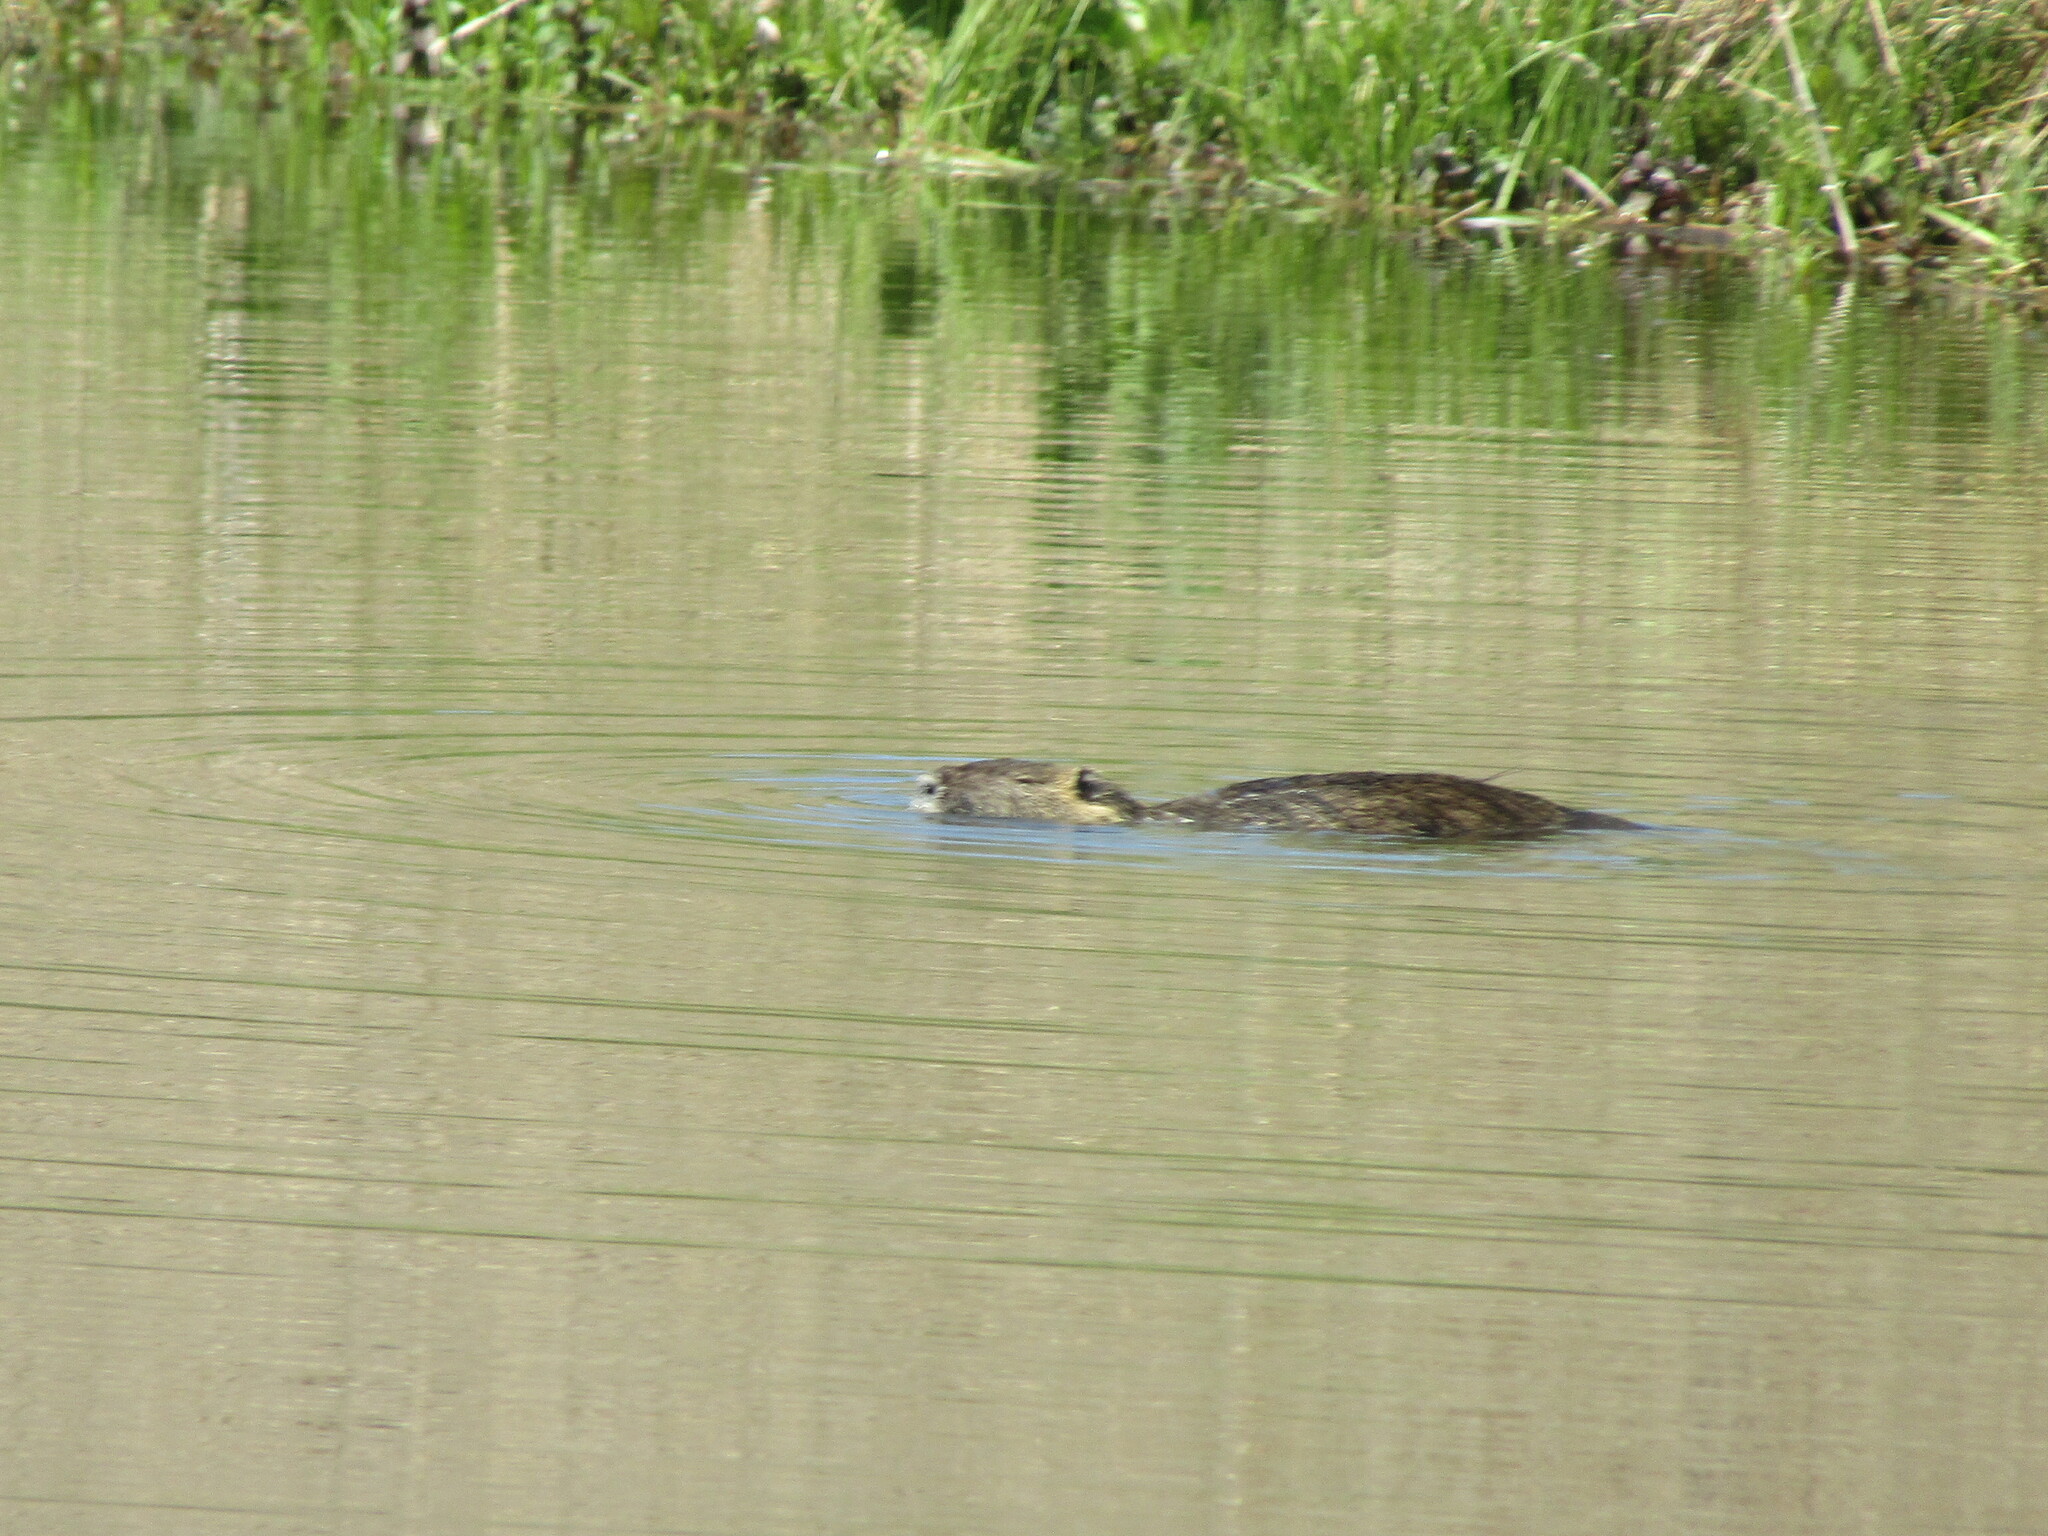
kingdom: Animalia
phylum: Chordata
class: Mammalia
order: Rodentia
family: Myocastoridae
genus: Myocastor
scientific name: Myocastor coypus
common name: Coypu
